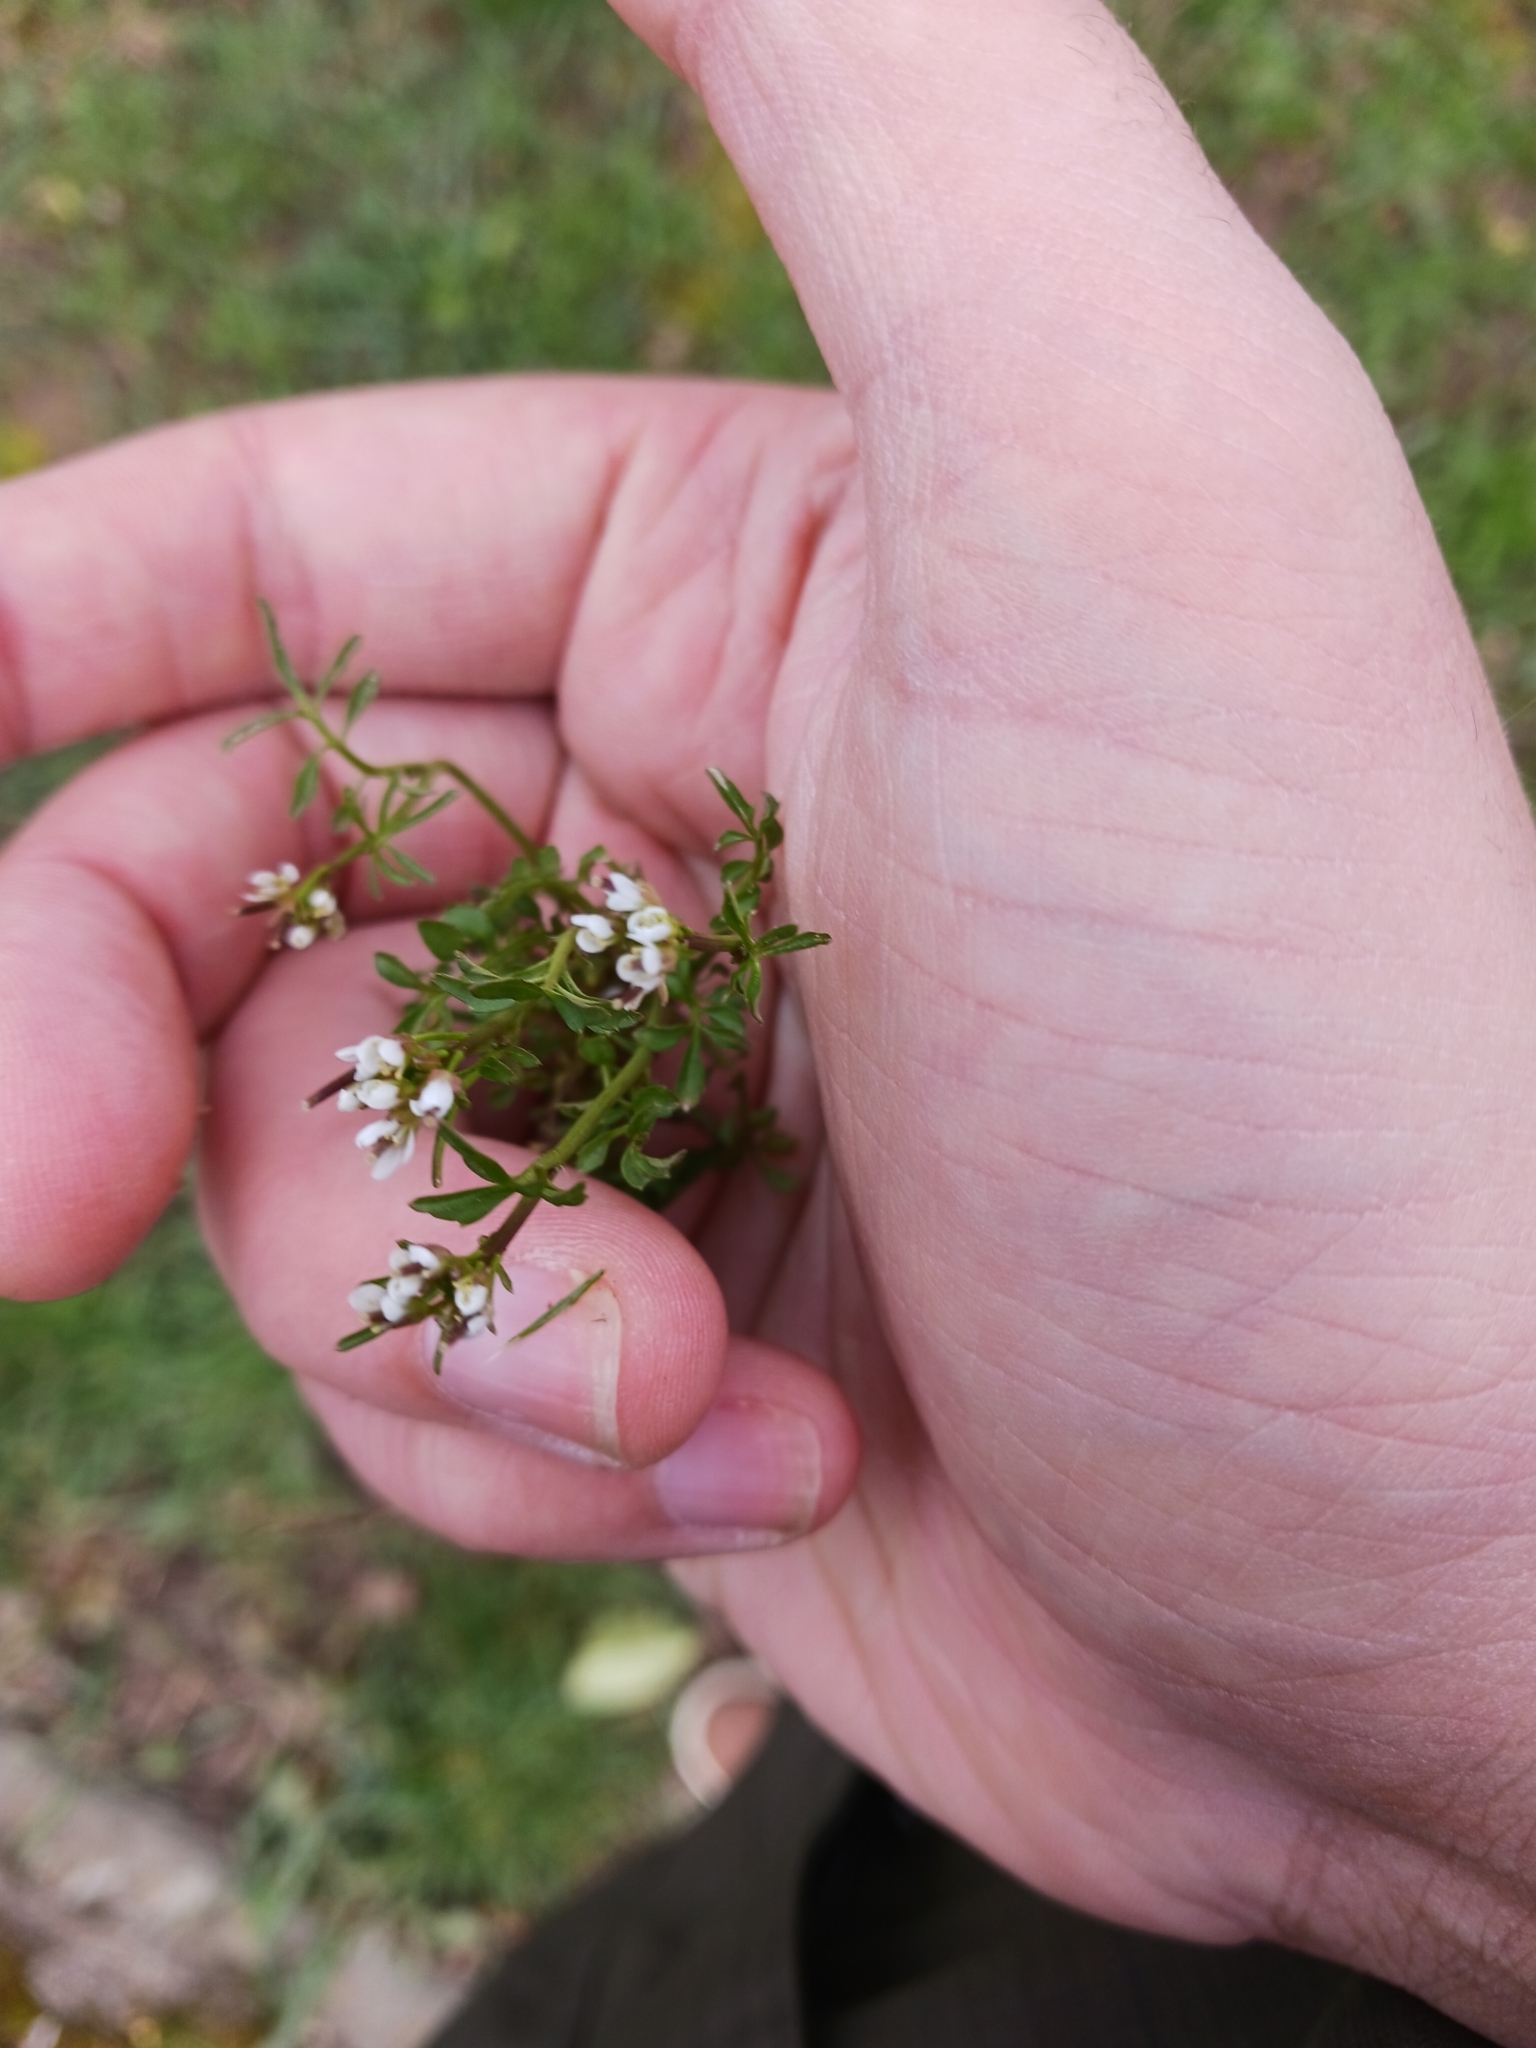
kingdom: Plantae
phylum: Tracheophyta
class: Magnoliopsida
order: Brassicales
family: Brassicaceae
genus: Cardamine
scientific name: Cardamine hirsuta
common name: Hairy bittercress
